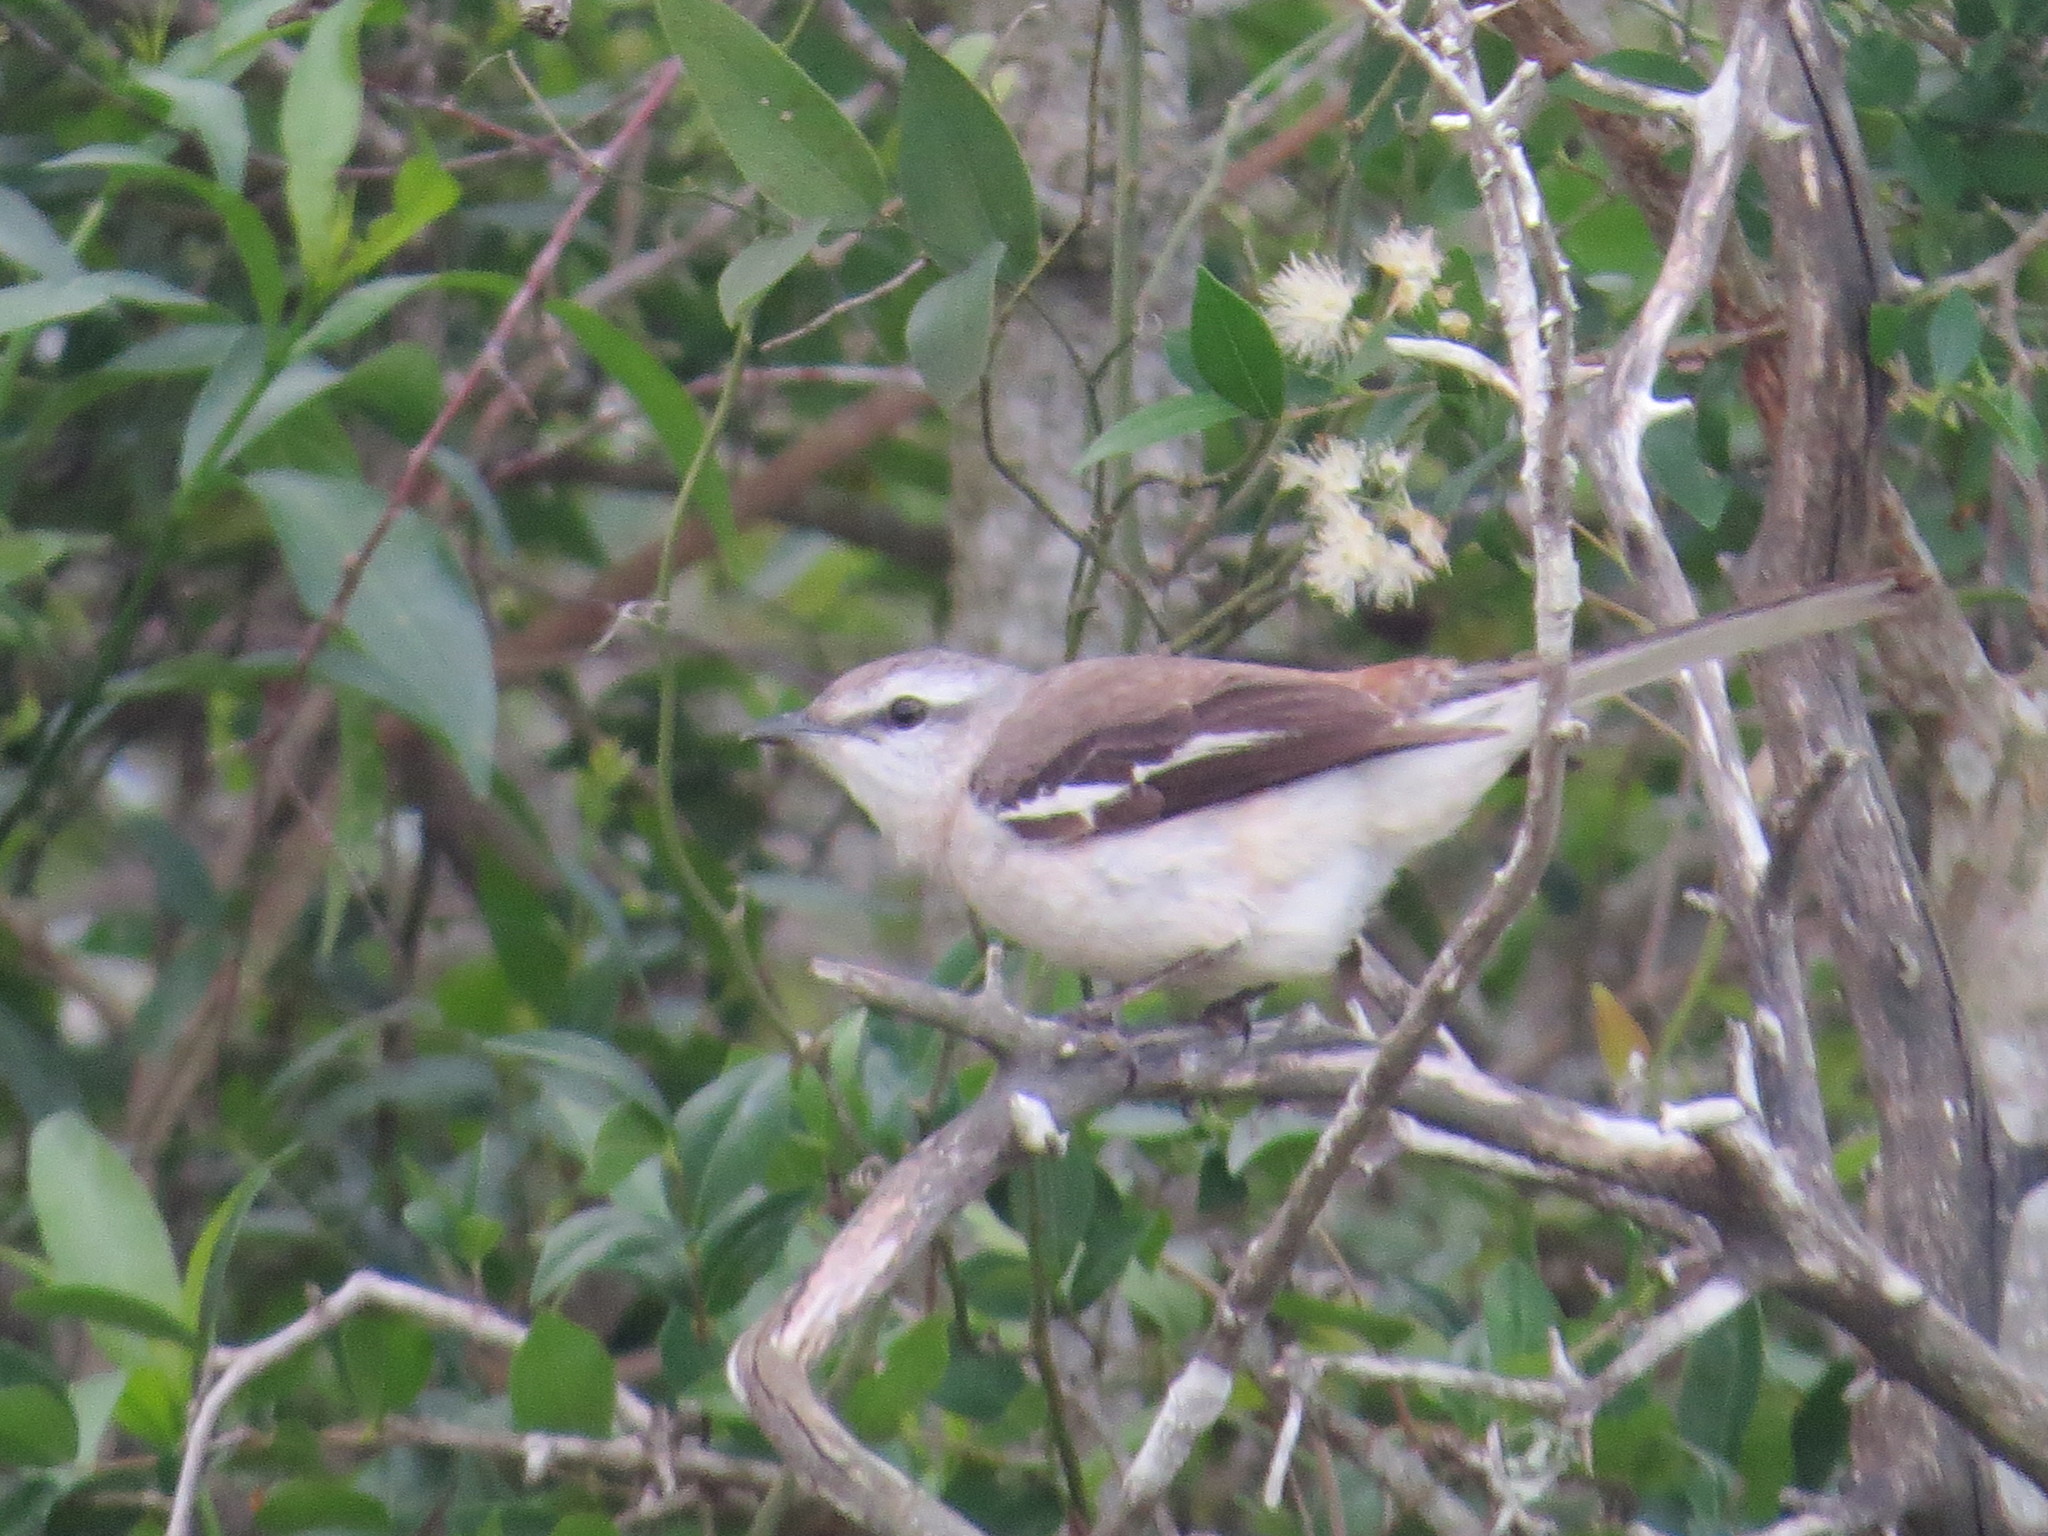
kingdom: Animalia
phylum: Chordata
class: Aves
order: Passeriformes
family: Mimidae
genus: Mimus
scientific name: Mimus triurus
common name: White-banded mockingbird
